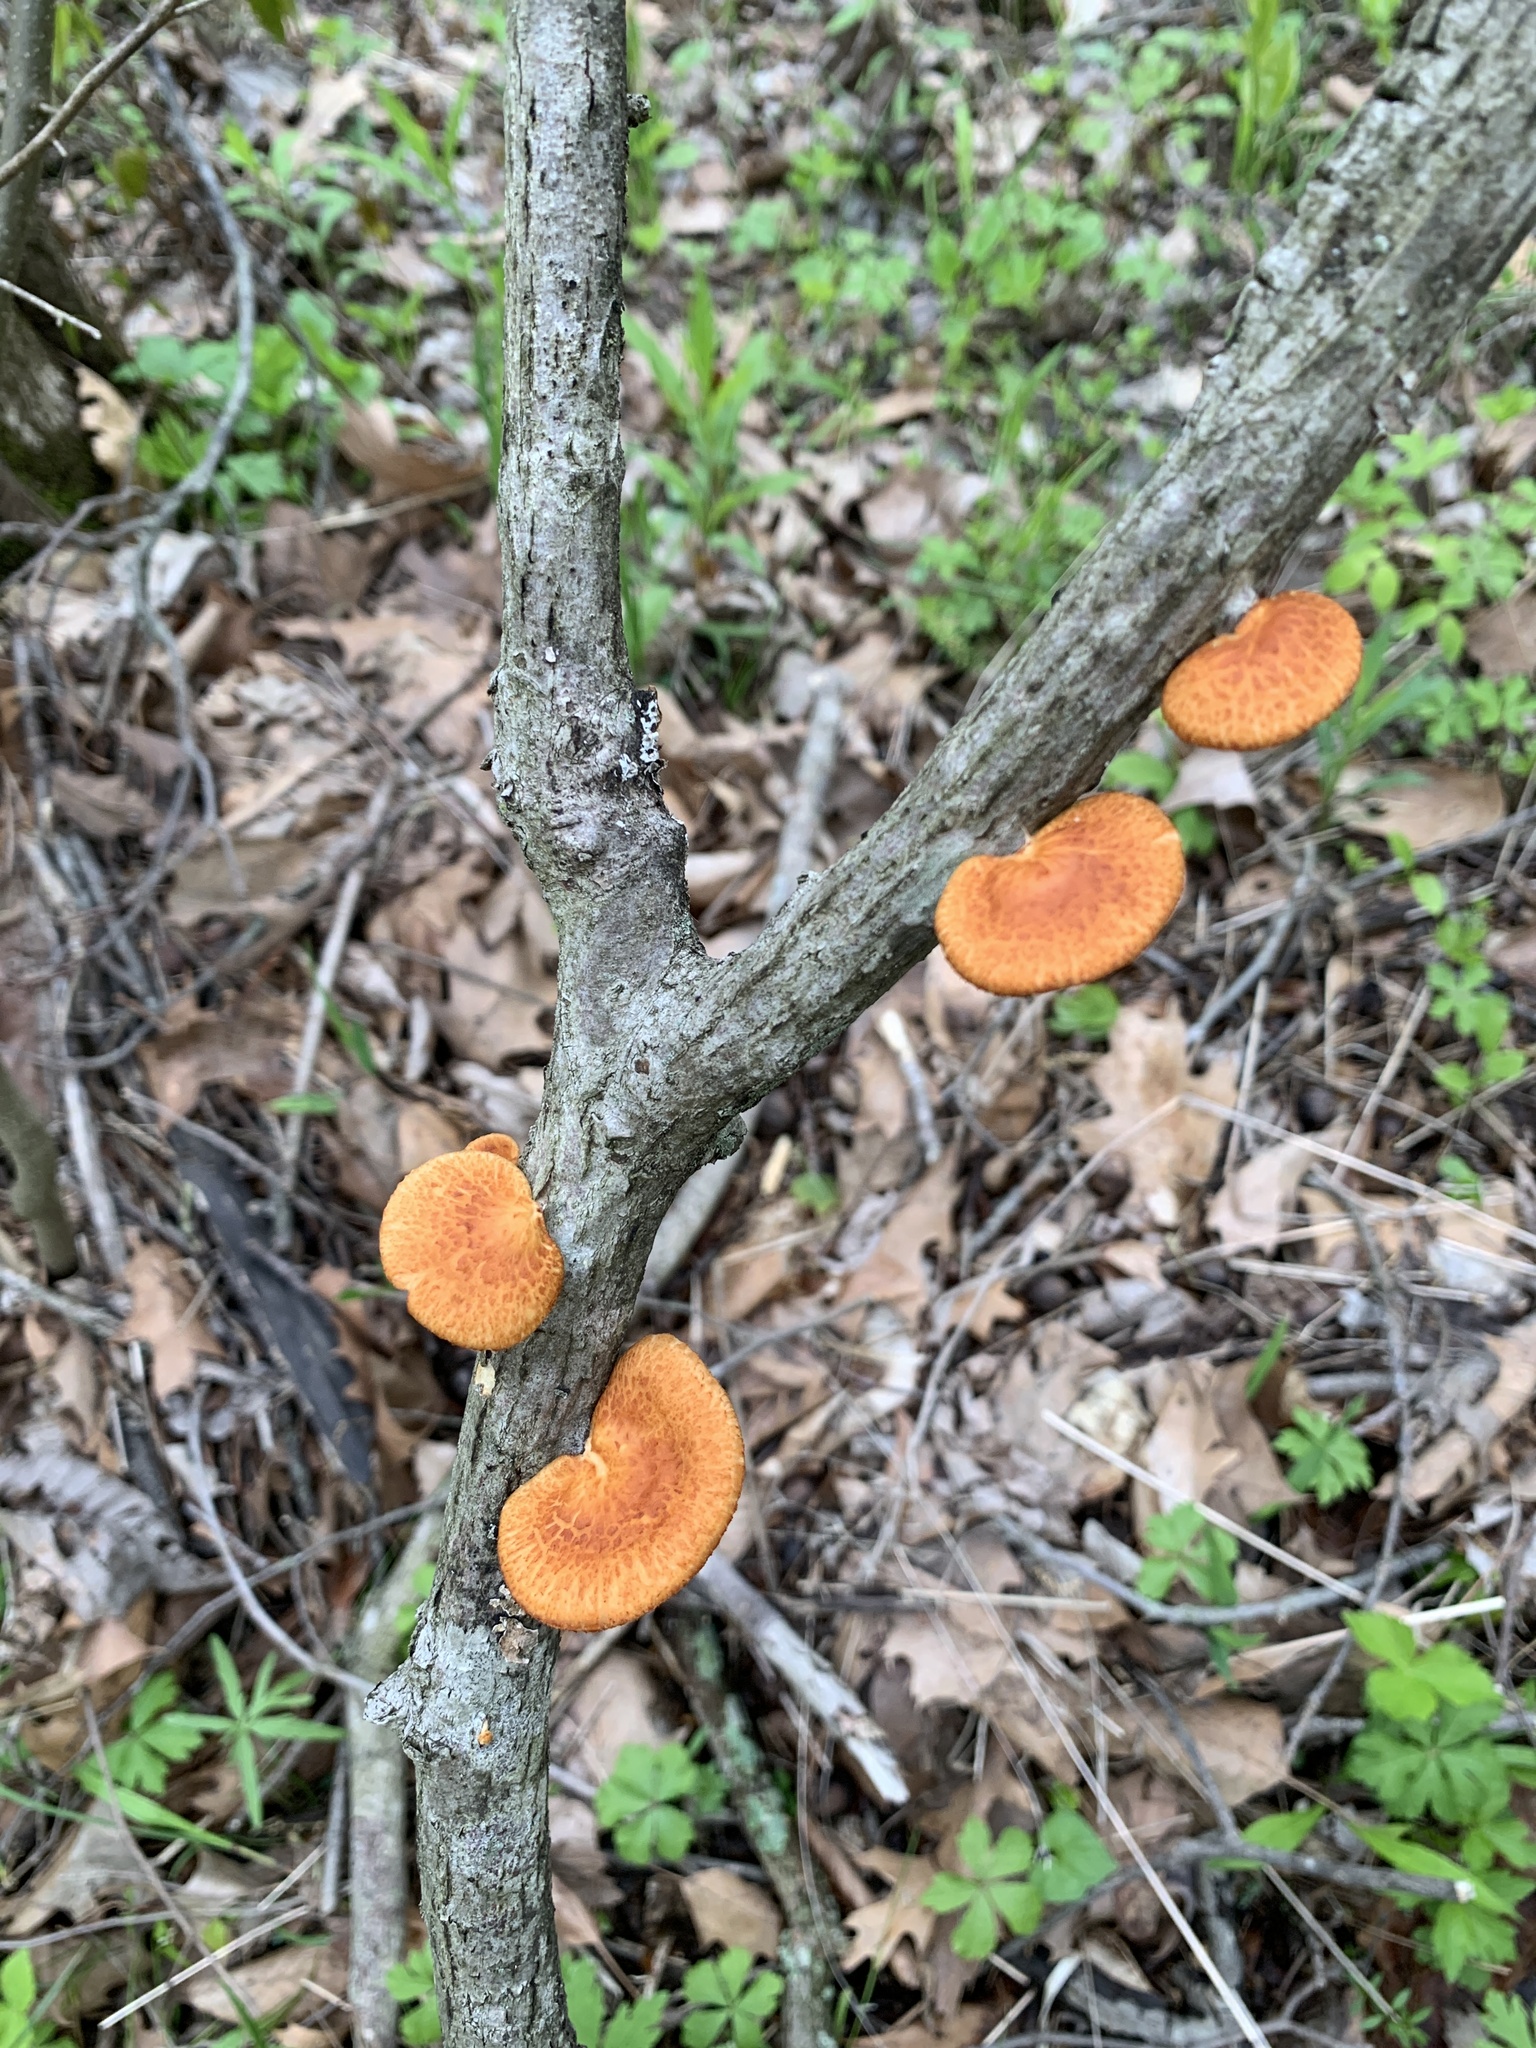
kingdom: Fungi
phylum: Basidiomycota
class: Agaricomycetes
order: Polyporales
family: Polyporaceae
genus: Neofavolus
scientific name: Neofavolus alveolaris
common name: Hexagonal-pored polypore
